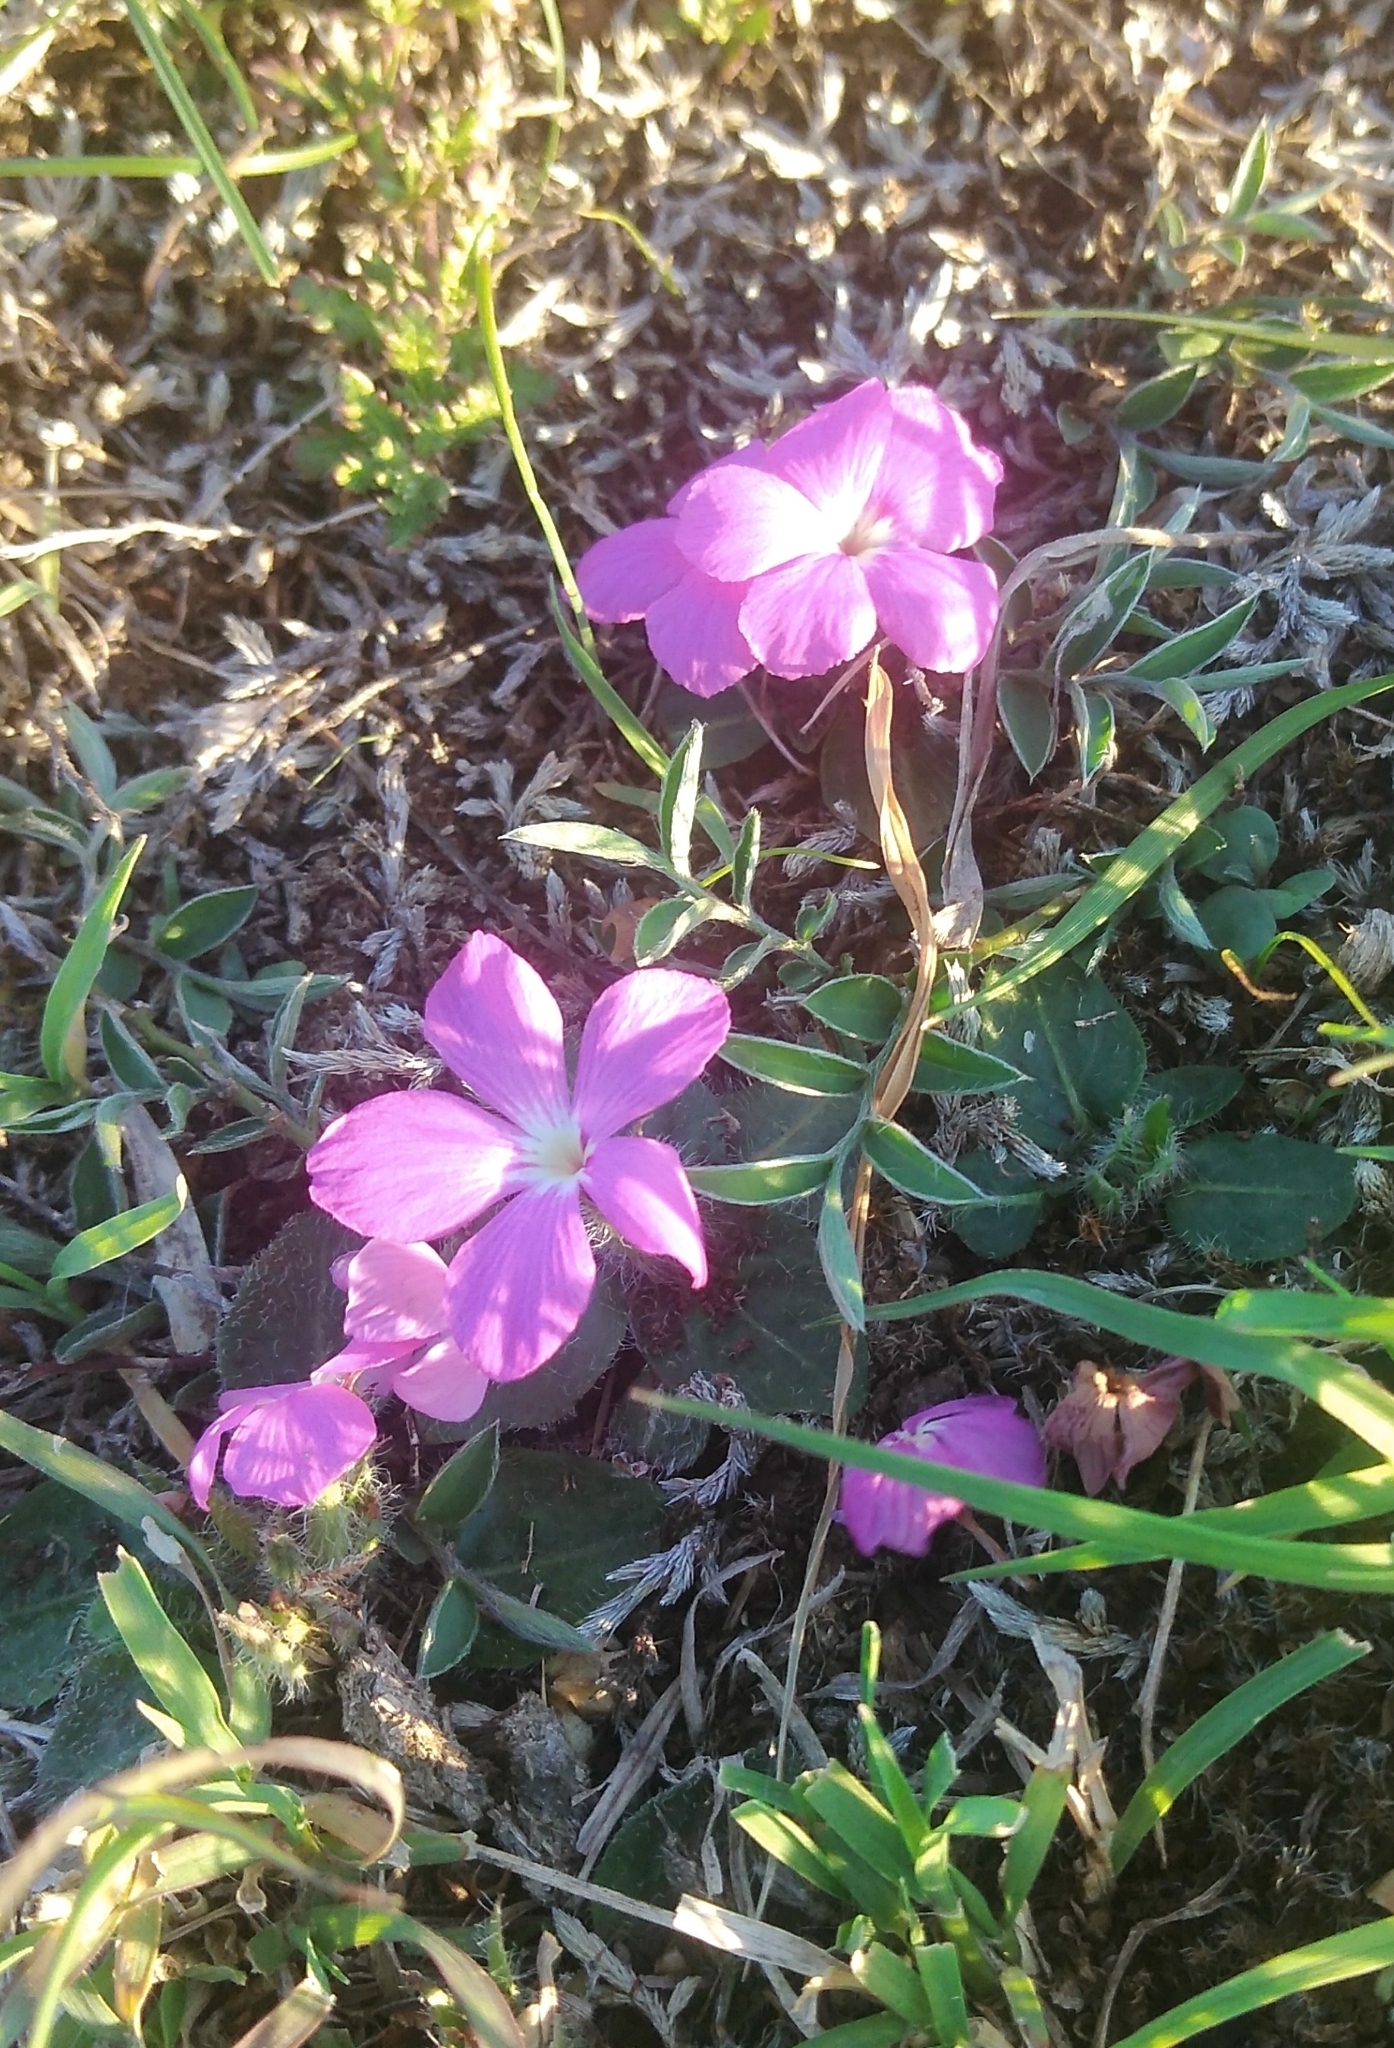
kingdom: Plantae
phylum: Tracheophyta
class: Magnoliopsida
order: Lamiales
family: Acanthaceae
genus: Stenandrium
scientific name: Stenandrium dulce
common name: Pinklet
